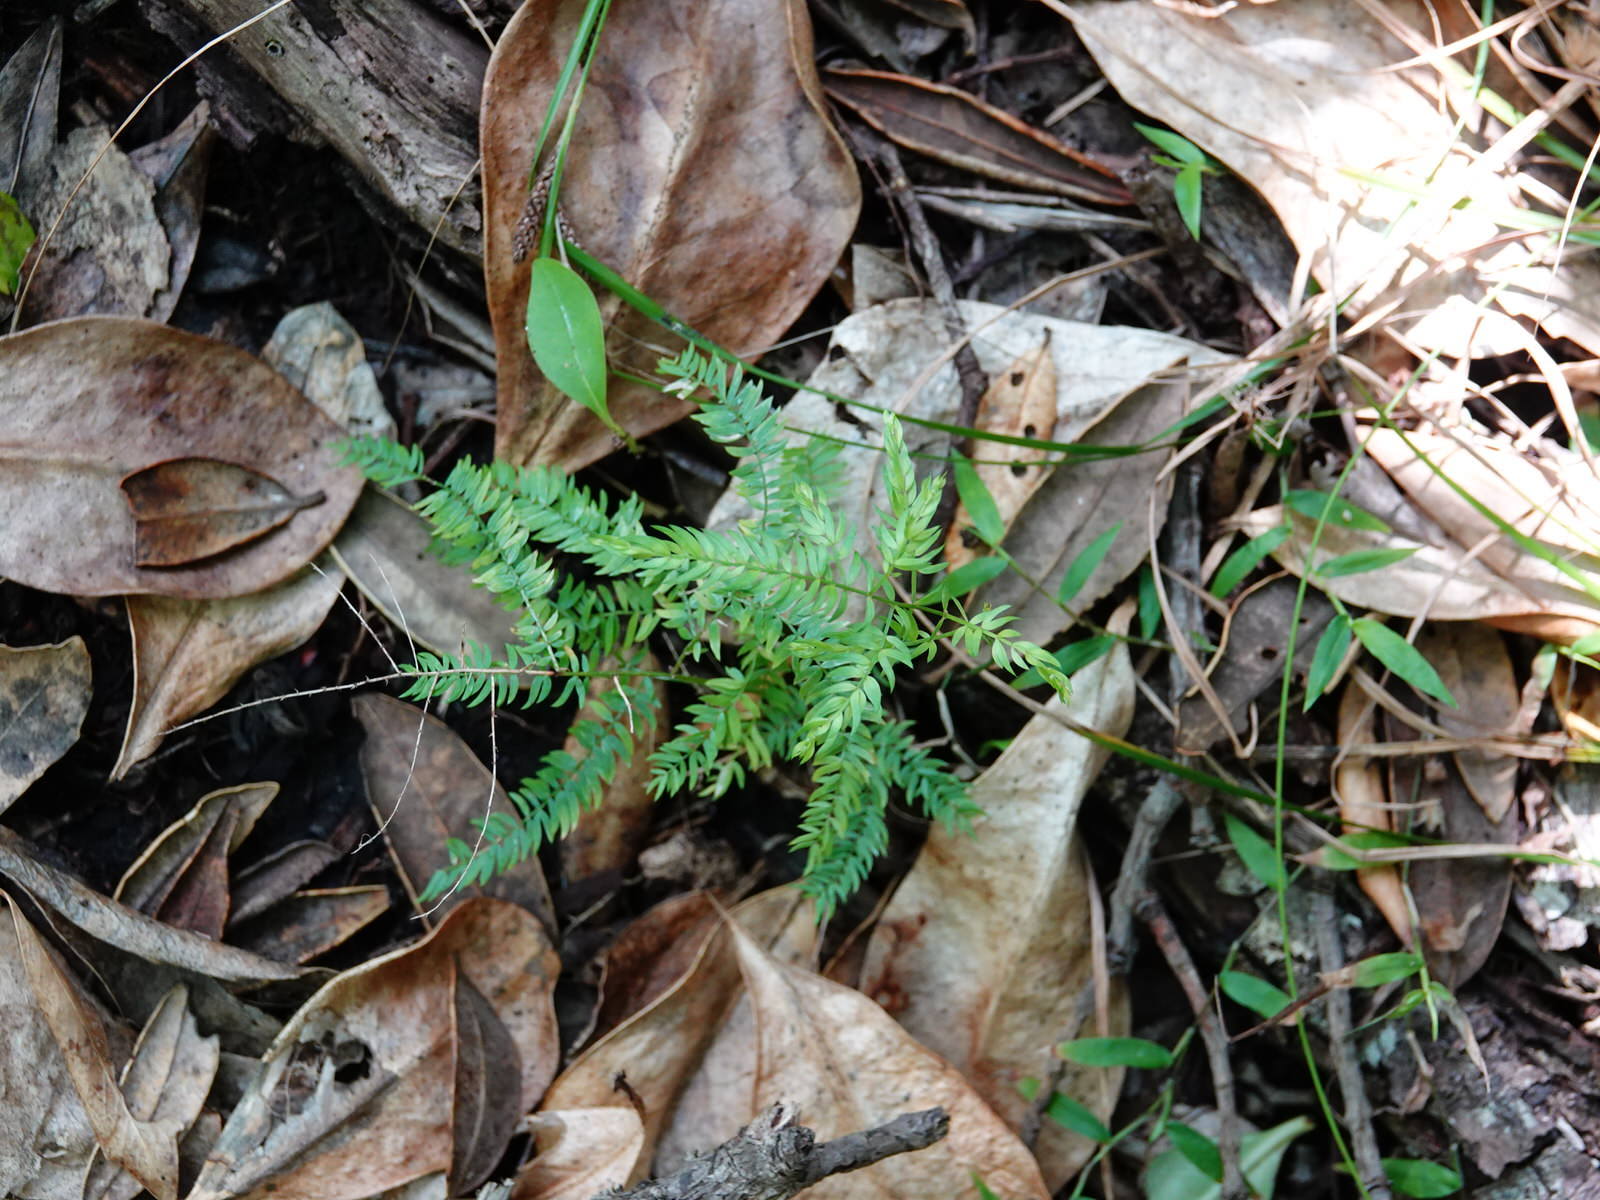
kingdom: Plantae
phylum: Tracheophyta
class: Liliopsida
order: Asparagales
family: Asparagaceae
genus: Asparagus
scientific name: Asparagus scandens
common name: Asparagus-fern
